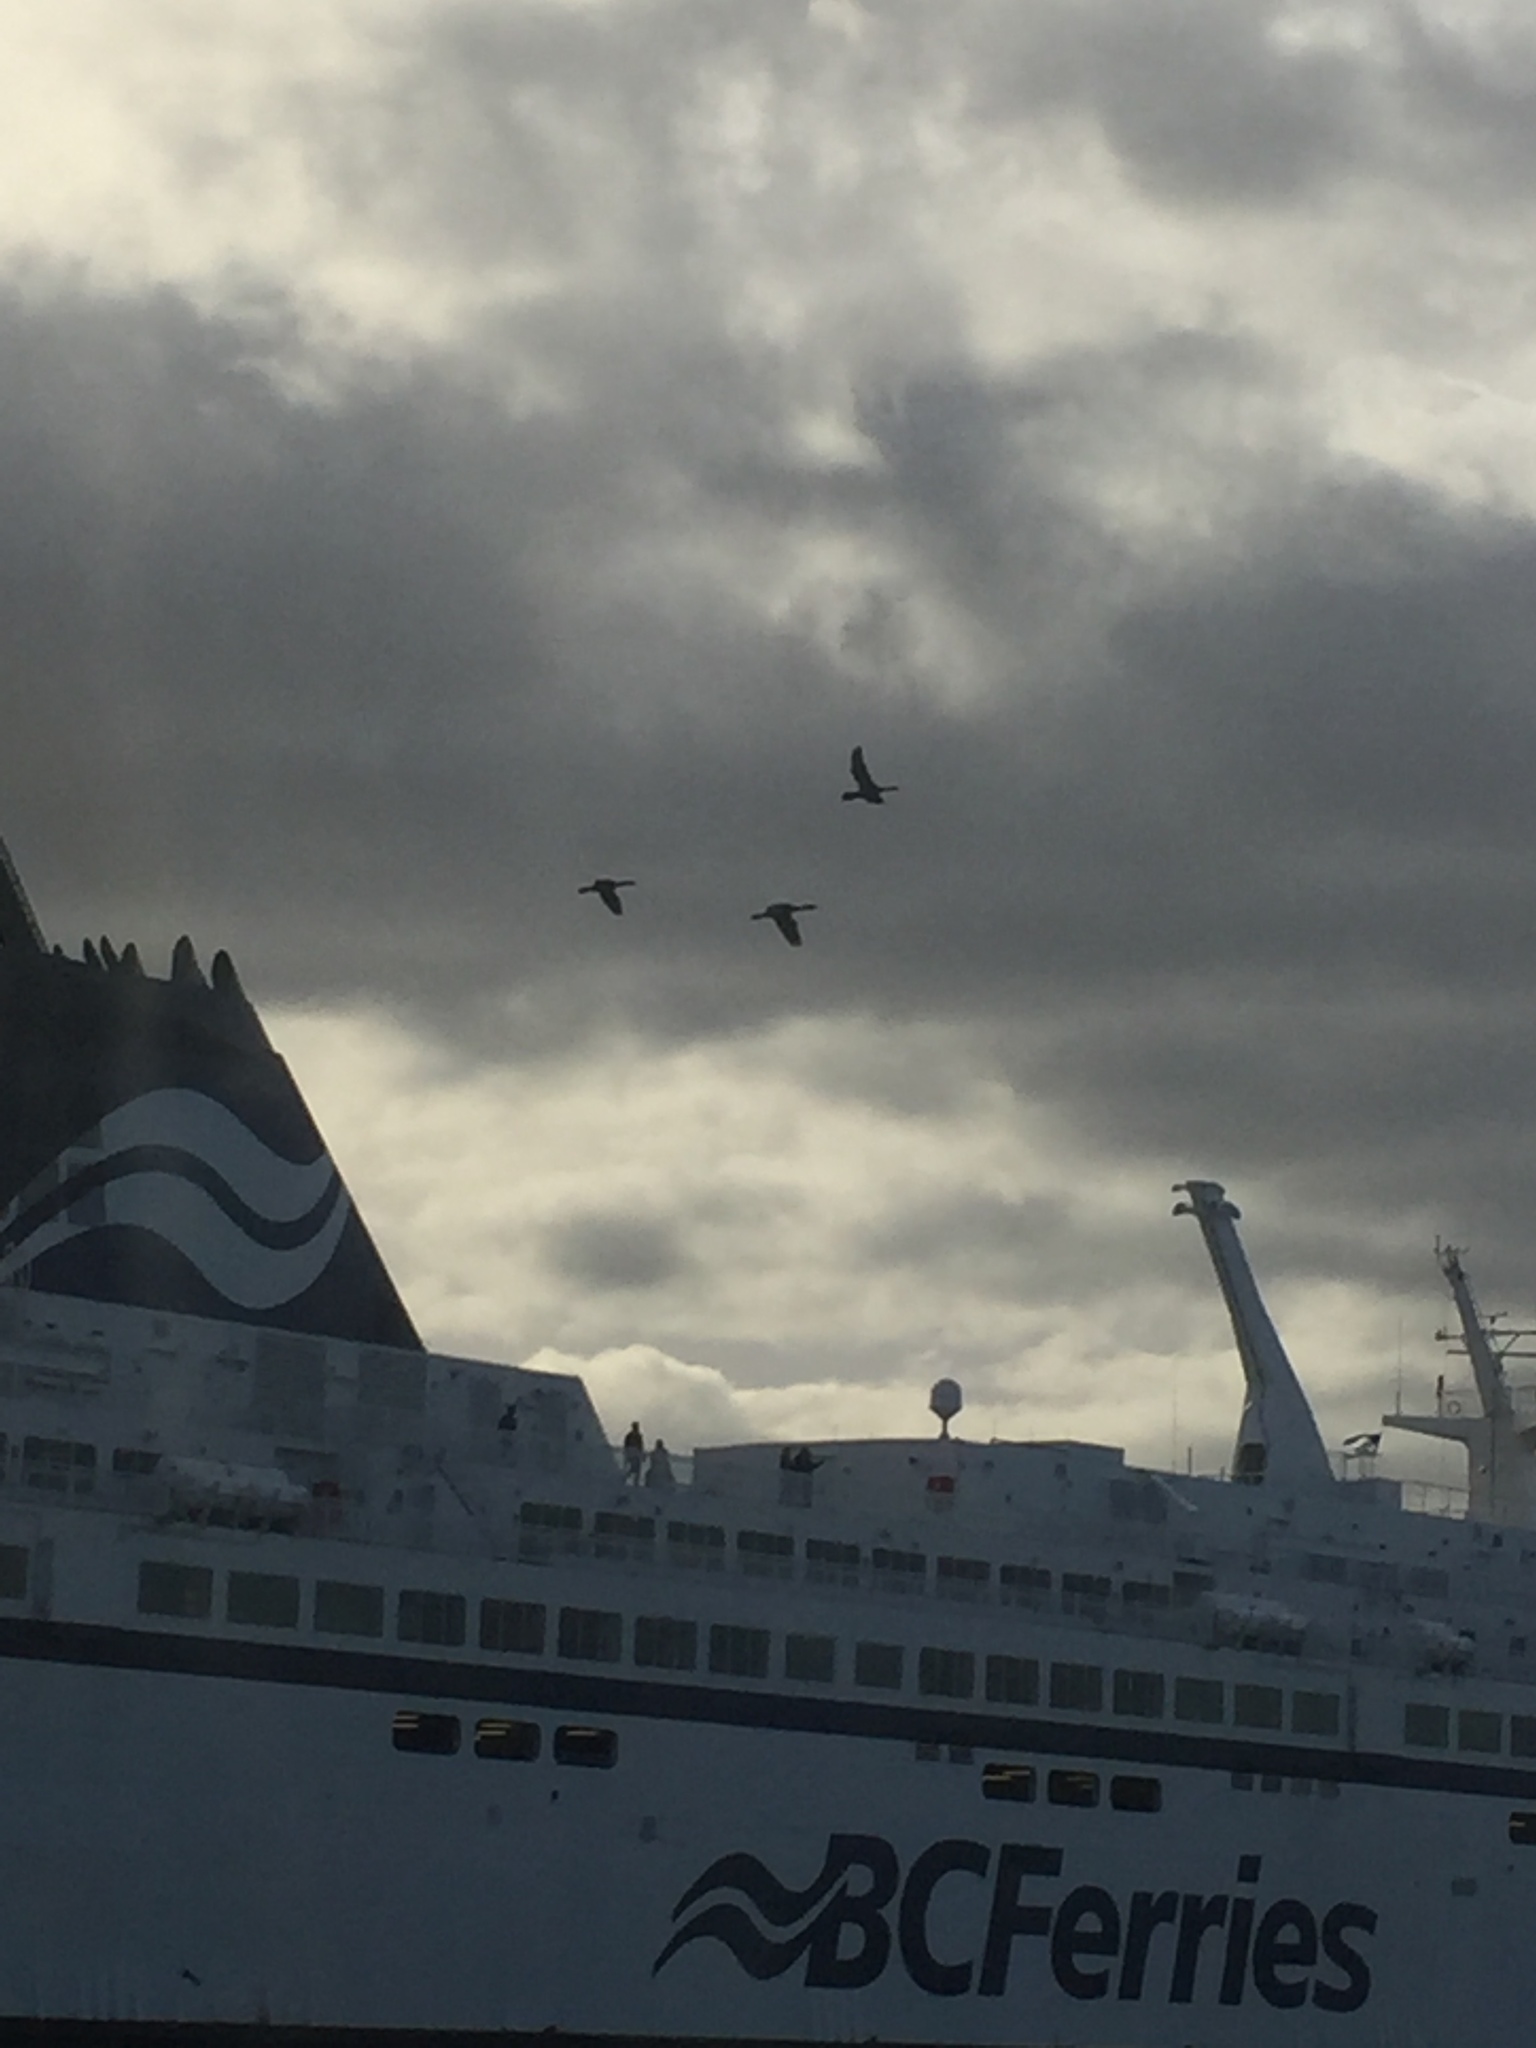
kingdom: Animalia
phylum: Chordata
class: Aves
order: Suliformes
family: Phalacrocoracidae
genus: Phalacrocorax
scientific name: Phalacrocorax pelagicus
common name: Pelagic cormorant
